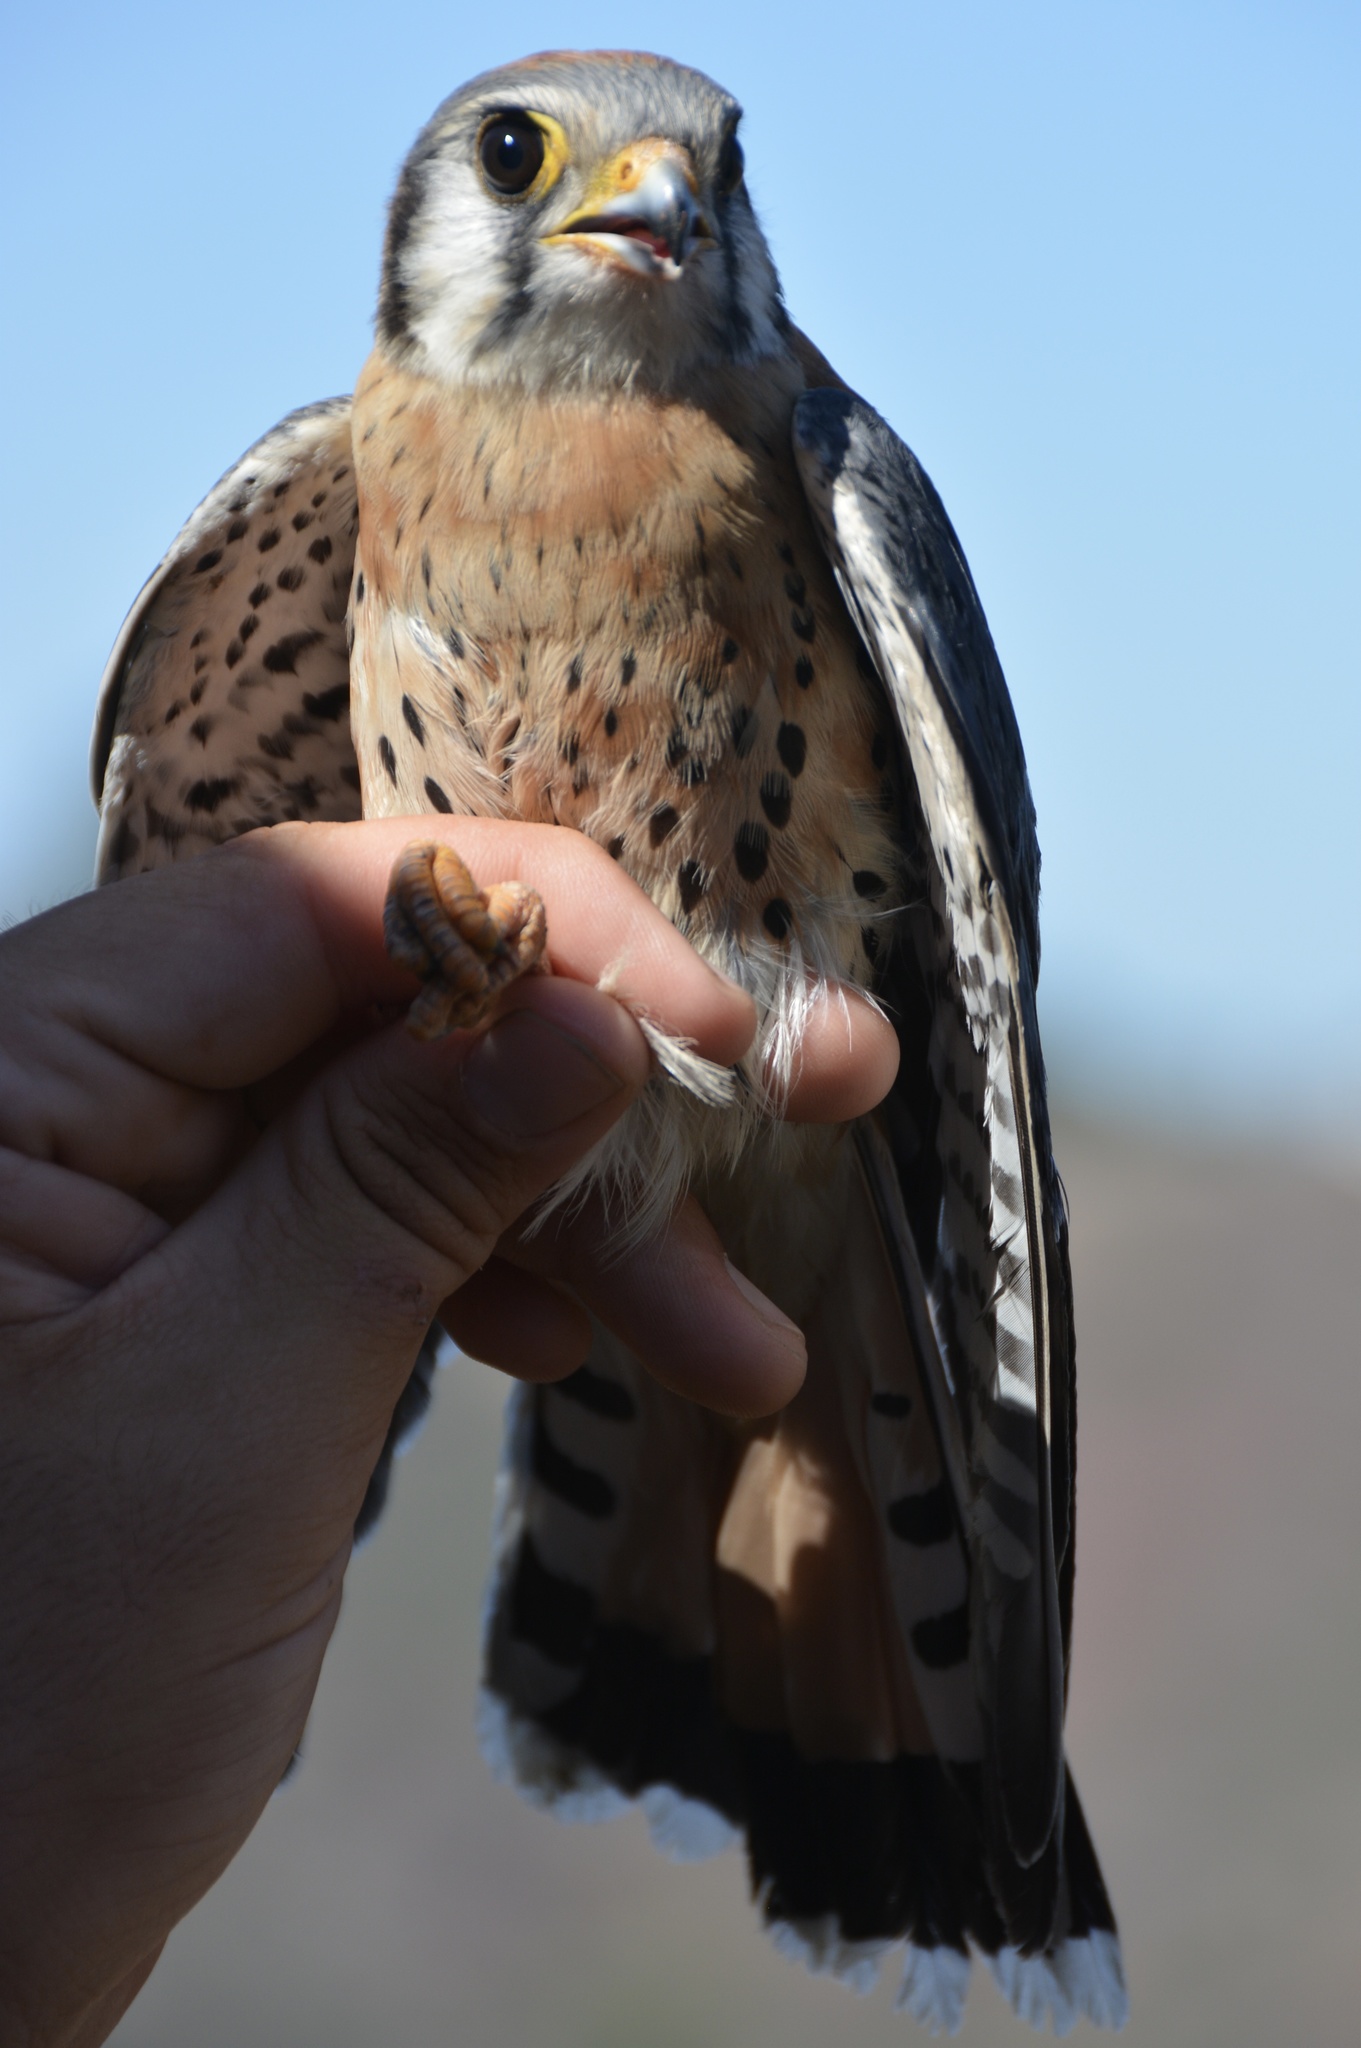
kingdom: Animalia
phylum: Chordata
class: Aves
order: Falconiformes
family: Falconidae
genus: Falco
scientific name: Falco sparverius
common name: American kestrel
